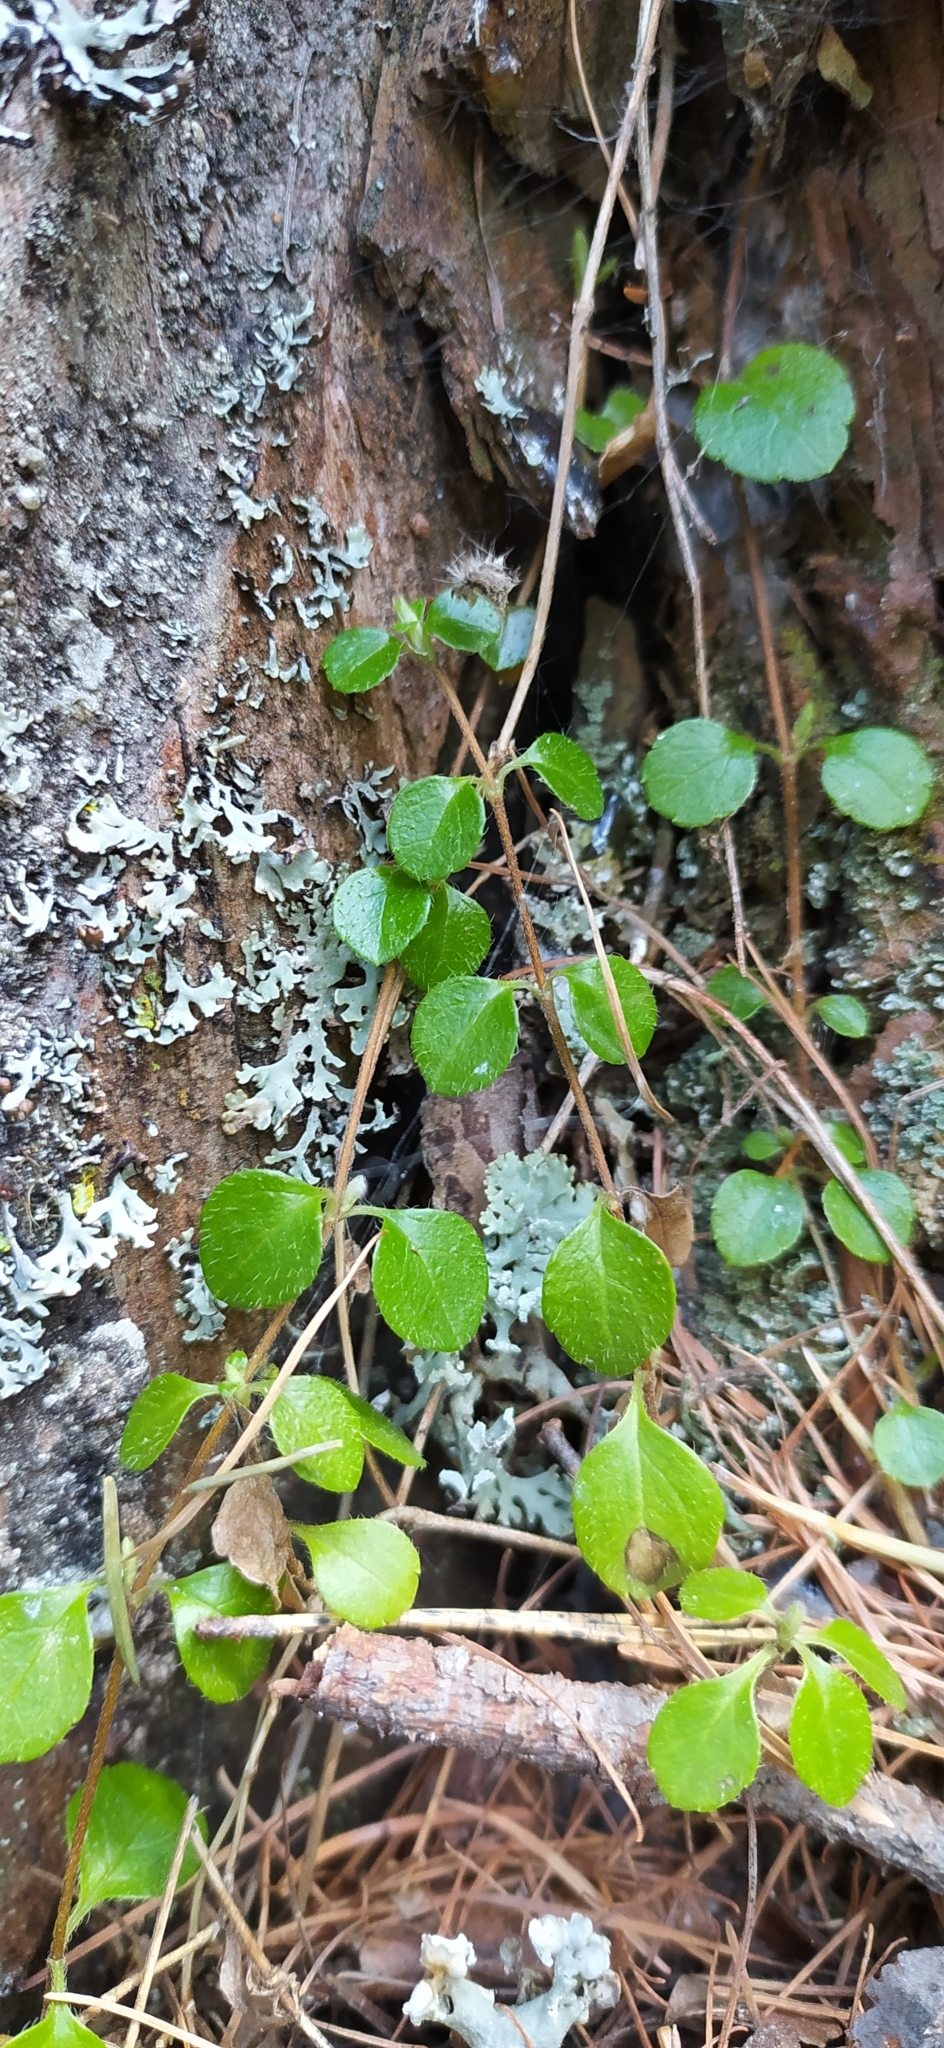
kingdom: Plantae
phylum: Tracheophyta
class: Magnoliopsida
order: Dipsacales
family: Caprifoliaceae
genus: Linnaea
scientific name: Linnaea borealis
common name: Twinflower
